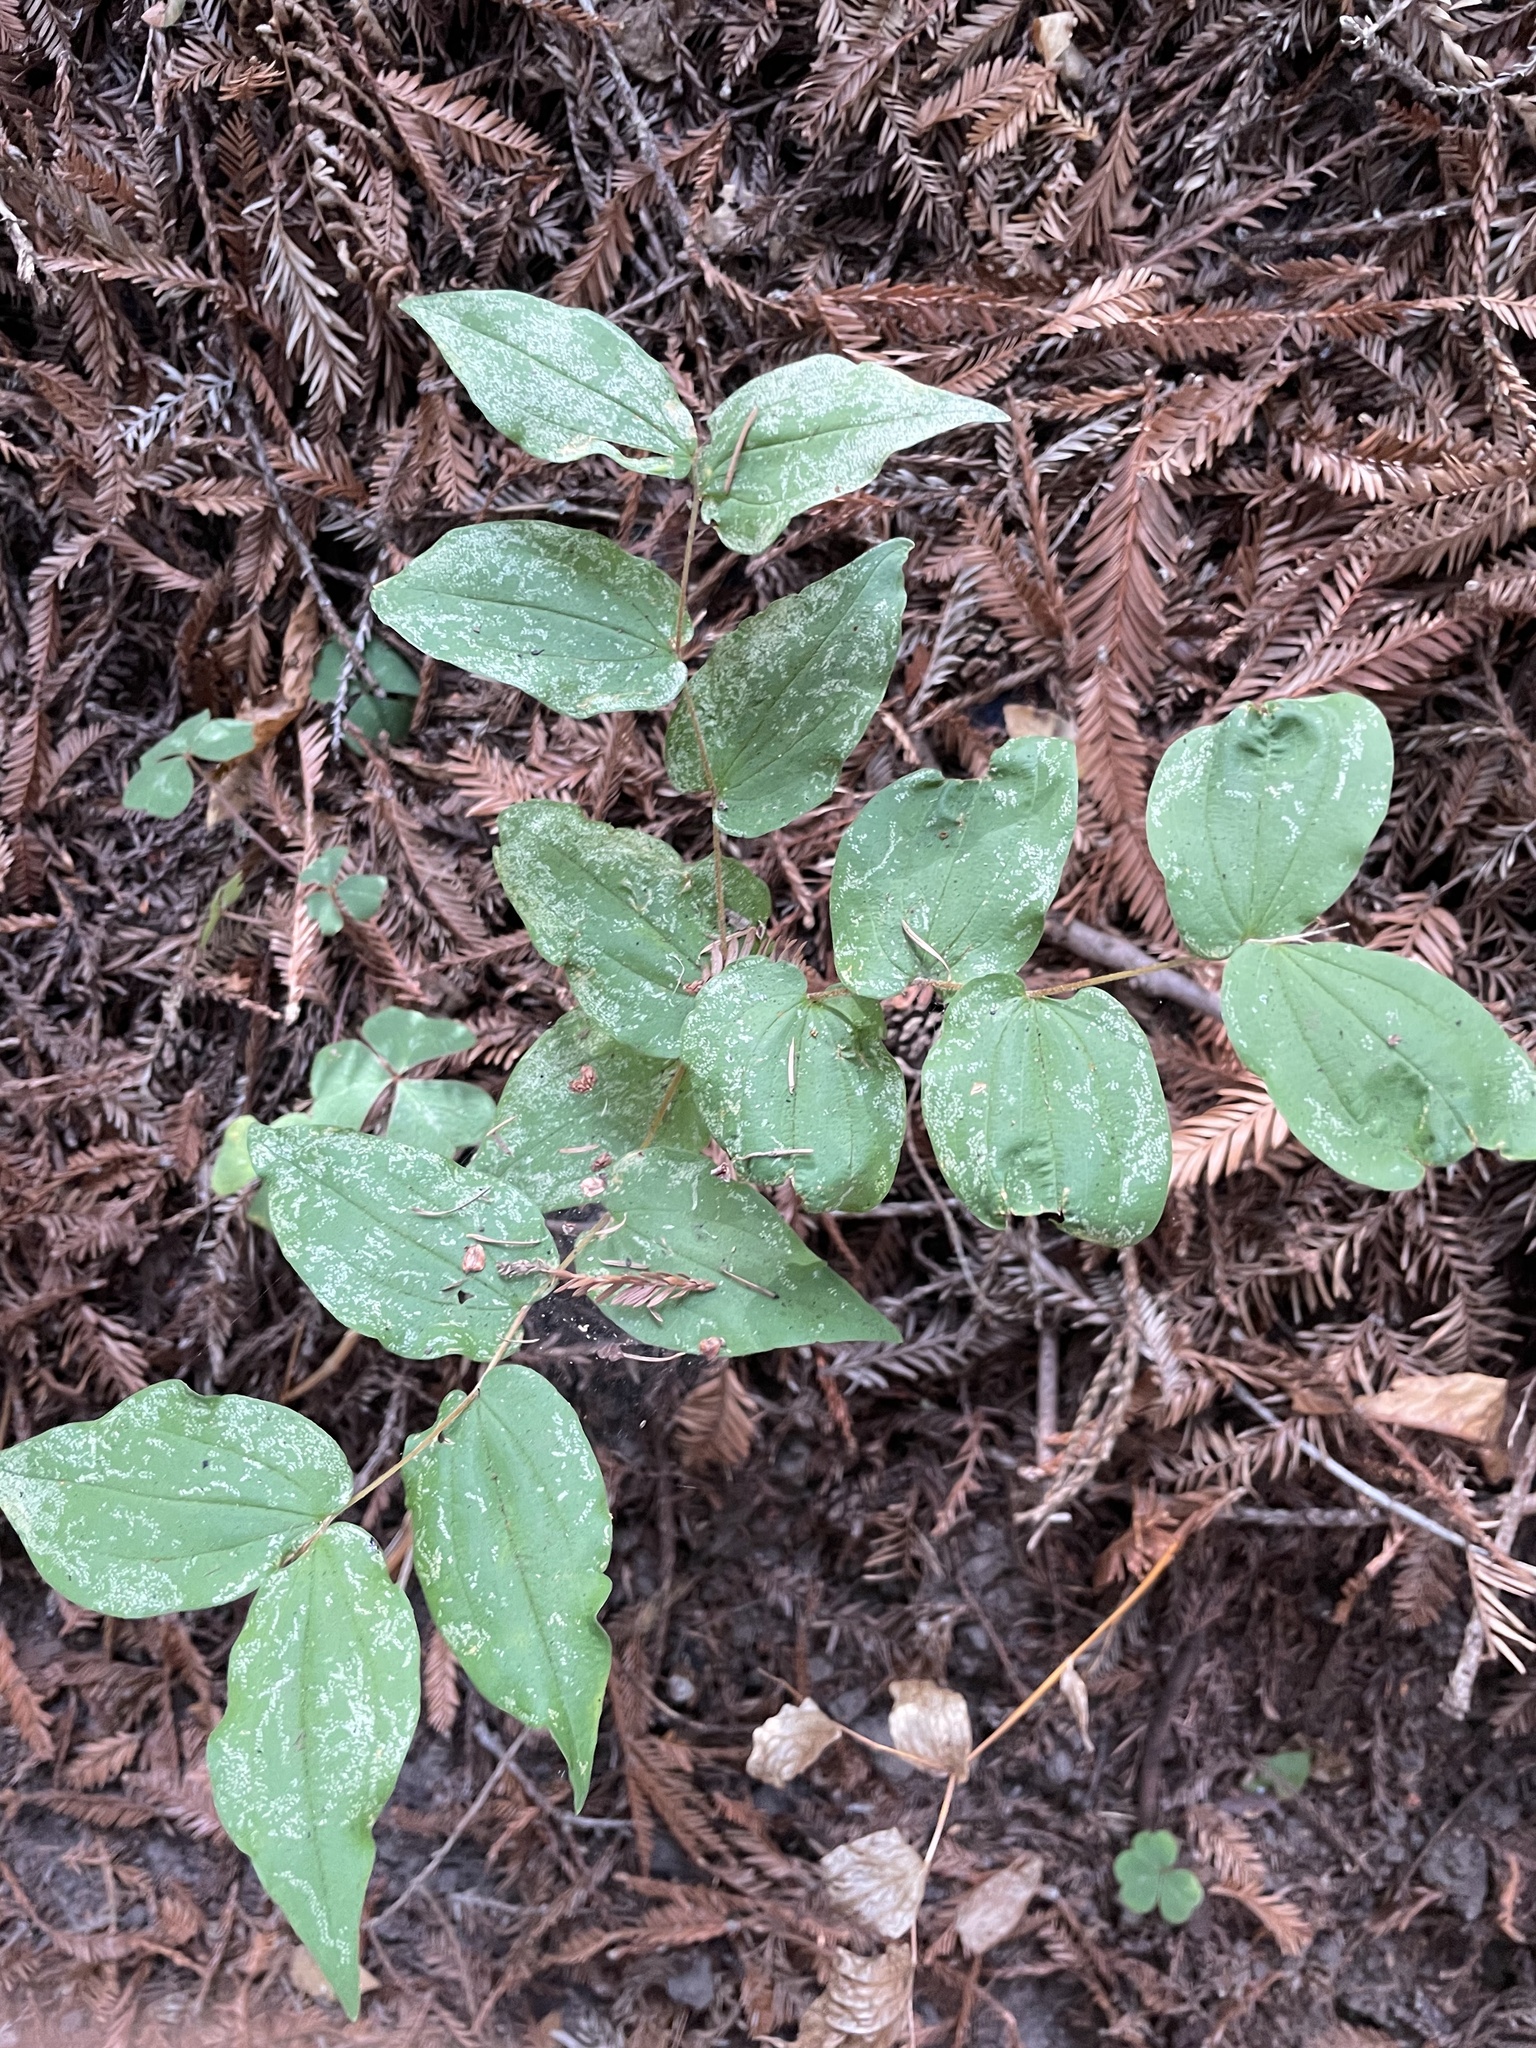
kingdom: Plantae
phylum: Tracheophyta
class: Liliopsida
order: Liliales
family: Liliaceae
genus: Prosartes
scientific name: Prosartes hookeri
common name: Fairy-bells
